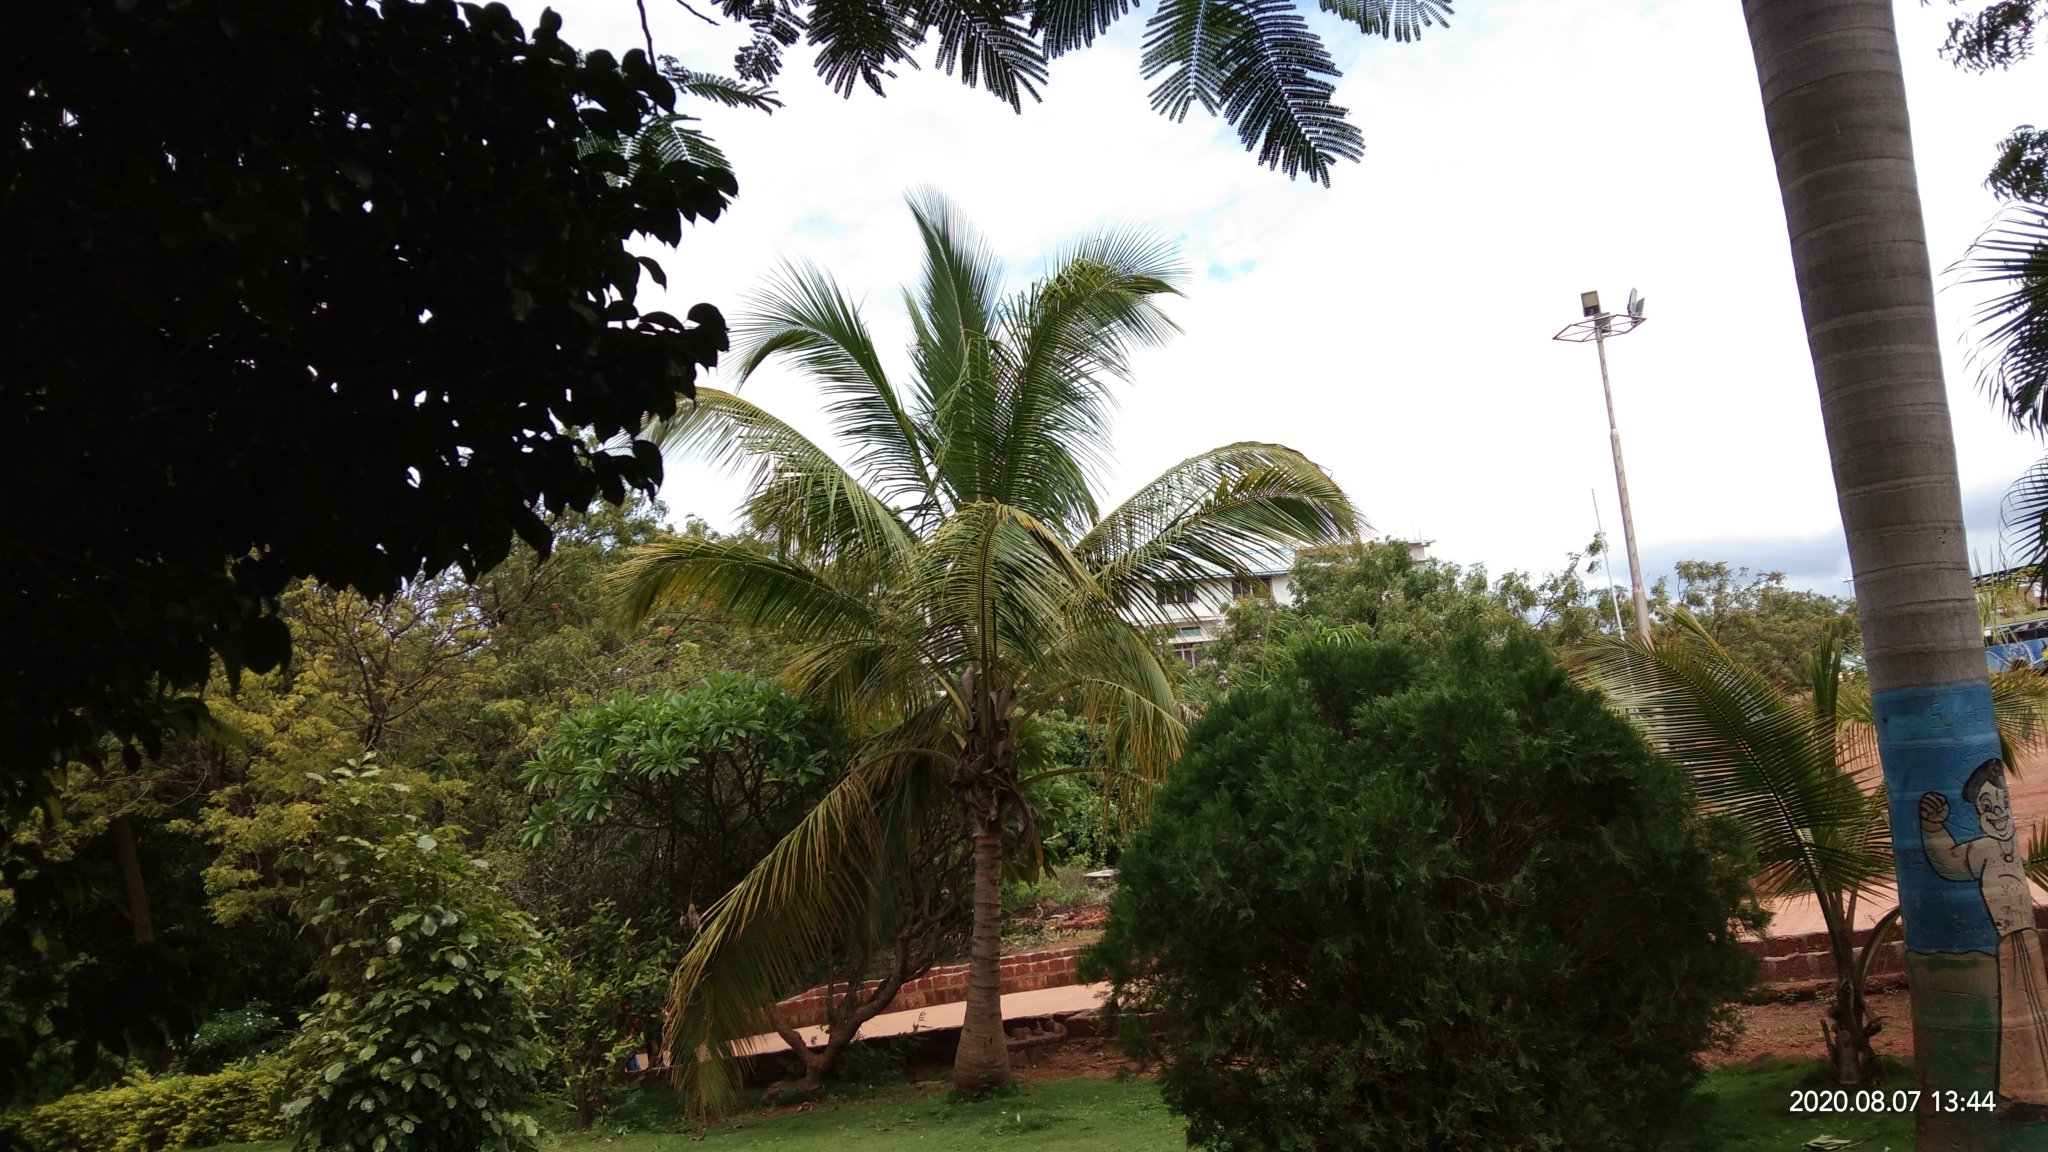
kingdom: Plantae
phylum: Tracheophyta
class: Liliopsida
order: Arecales
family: Arecaceae
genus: Cocos
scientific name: Cocos nucifera
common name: Coconut palm
